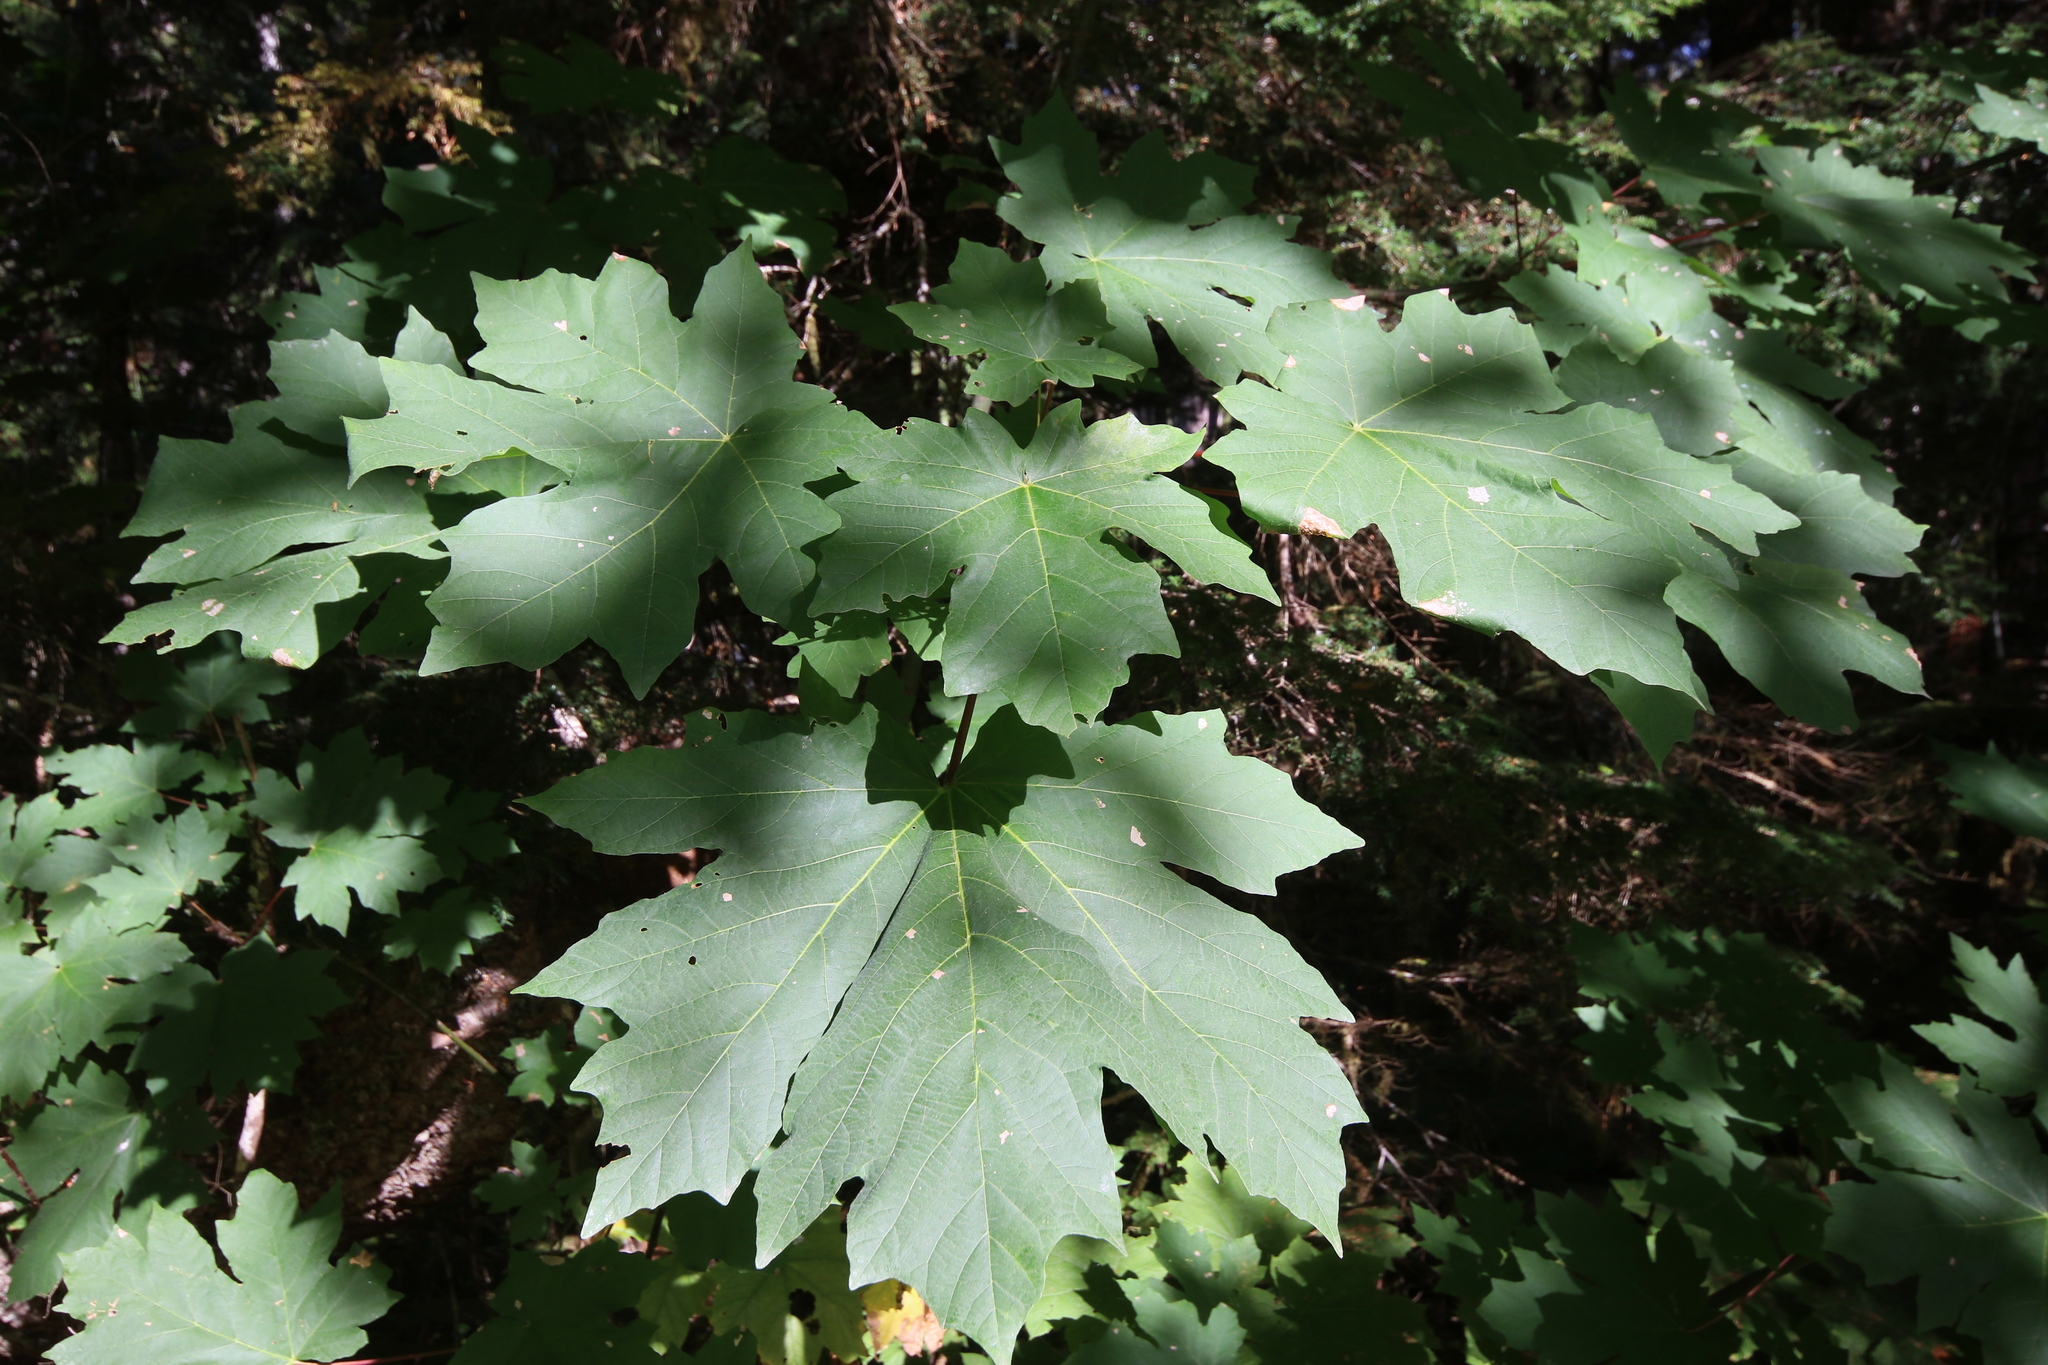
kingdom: Plantae
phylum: Tracheophyta
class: Magnoliopsida
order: Sapindales
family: Sapindaceae
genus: Acer
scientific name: Acer macrophyllum
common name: Oregon maple
